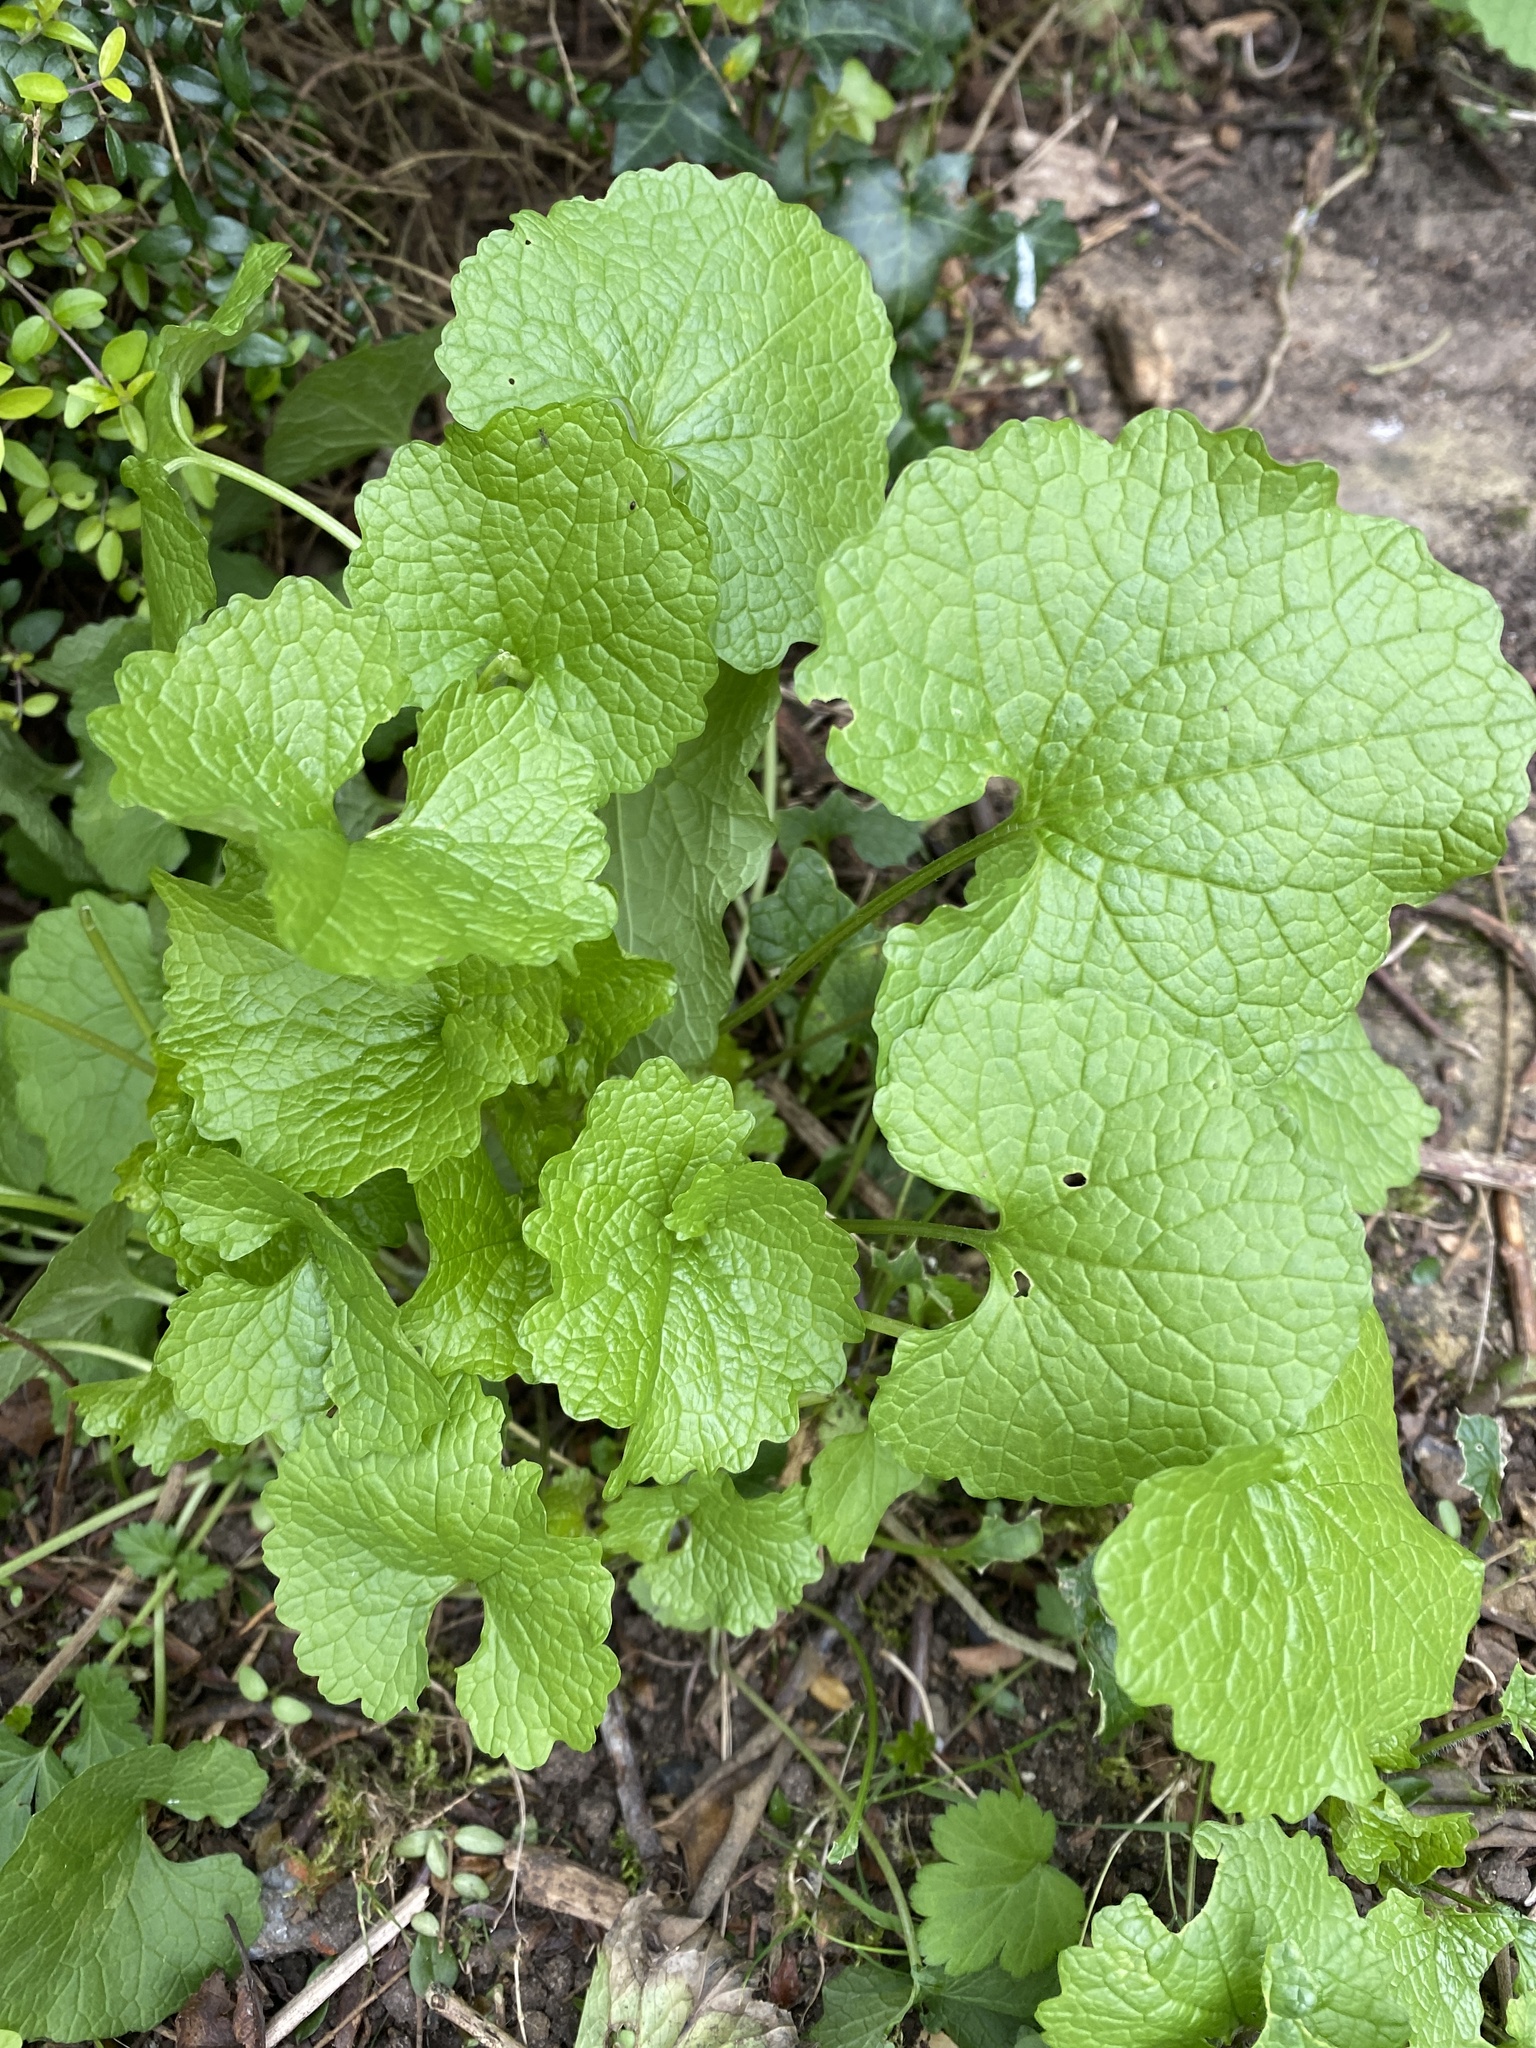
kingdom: Plantae
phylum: Tracheophyta
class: Magnoliopsida
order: Brassicales
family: Brassicaceae
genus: Alliaria
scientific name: Alliaria petiolata
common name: Garlic mustard
